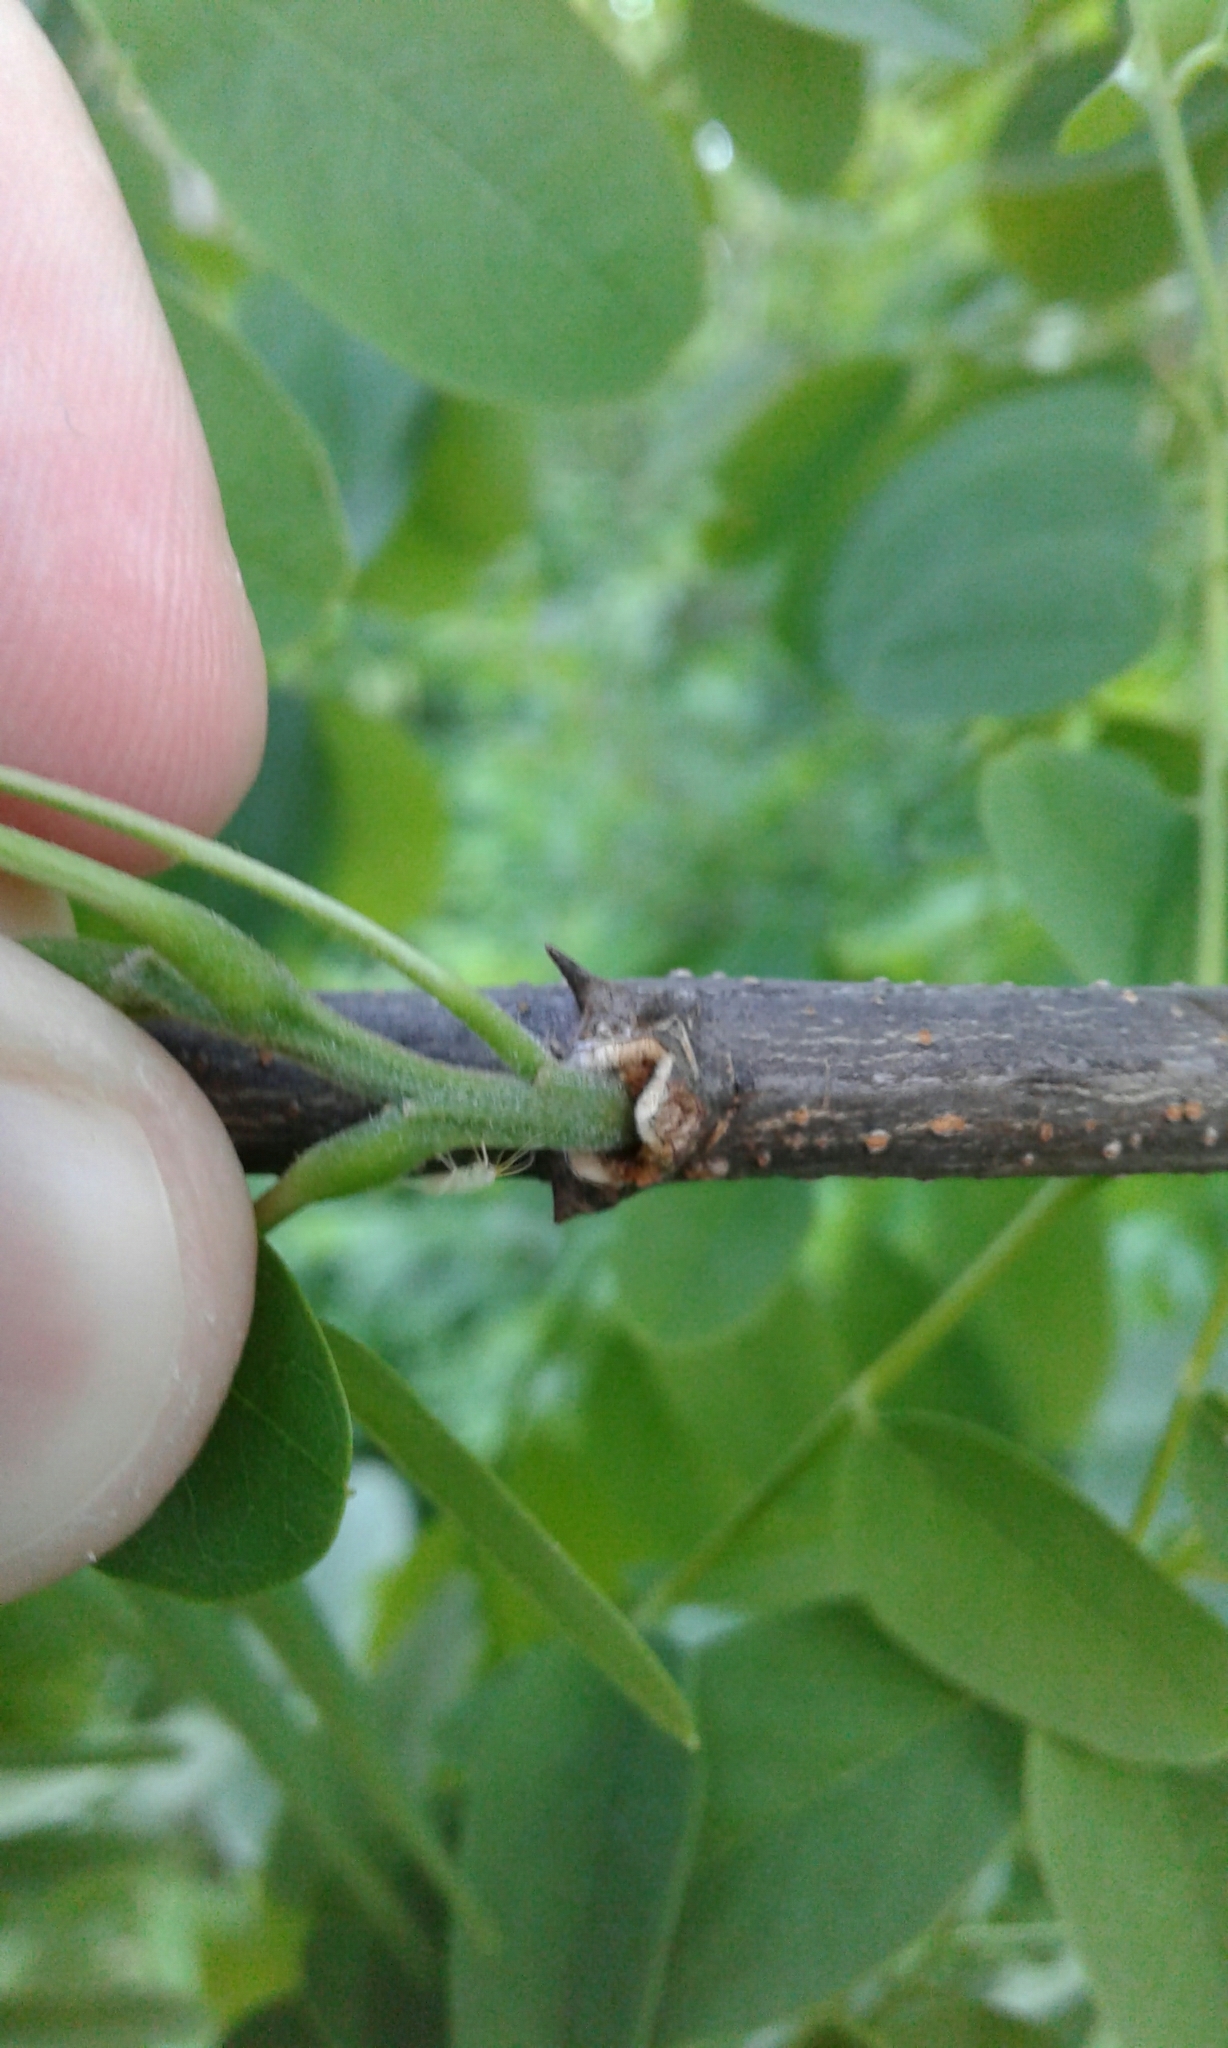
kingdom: Plantae
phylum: Tracheophyta
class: Magnoliopsida
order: Fabales
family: Fabaceae
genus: Robinia
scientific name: Robinia pseudoacacia
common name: Black locust
